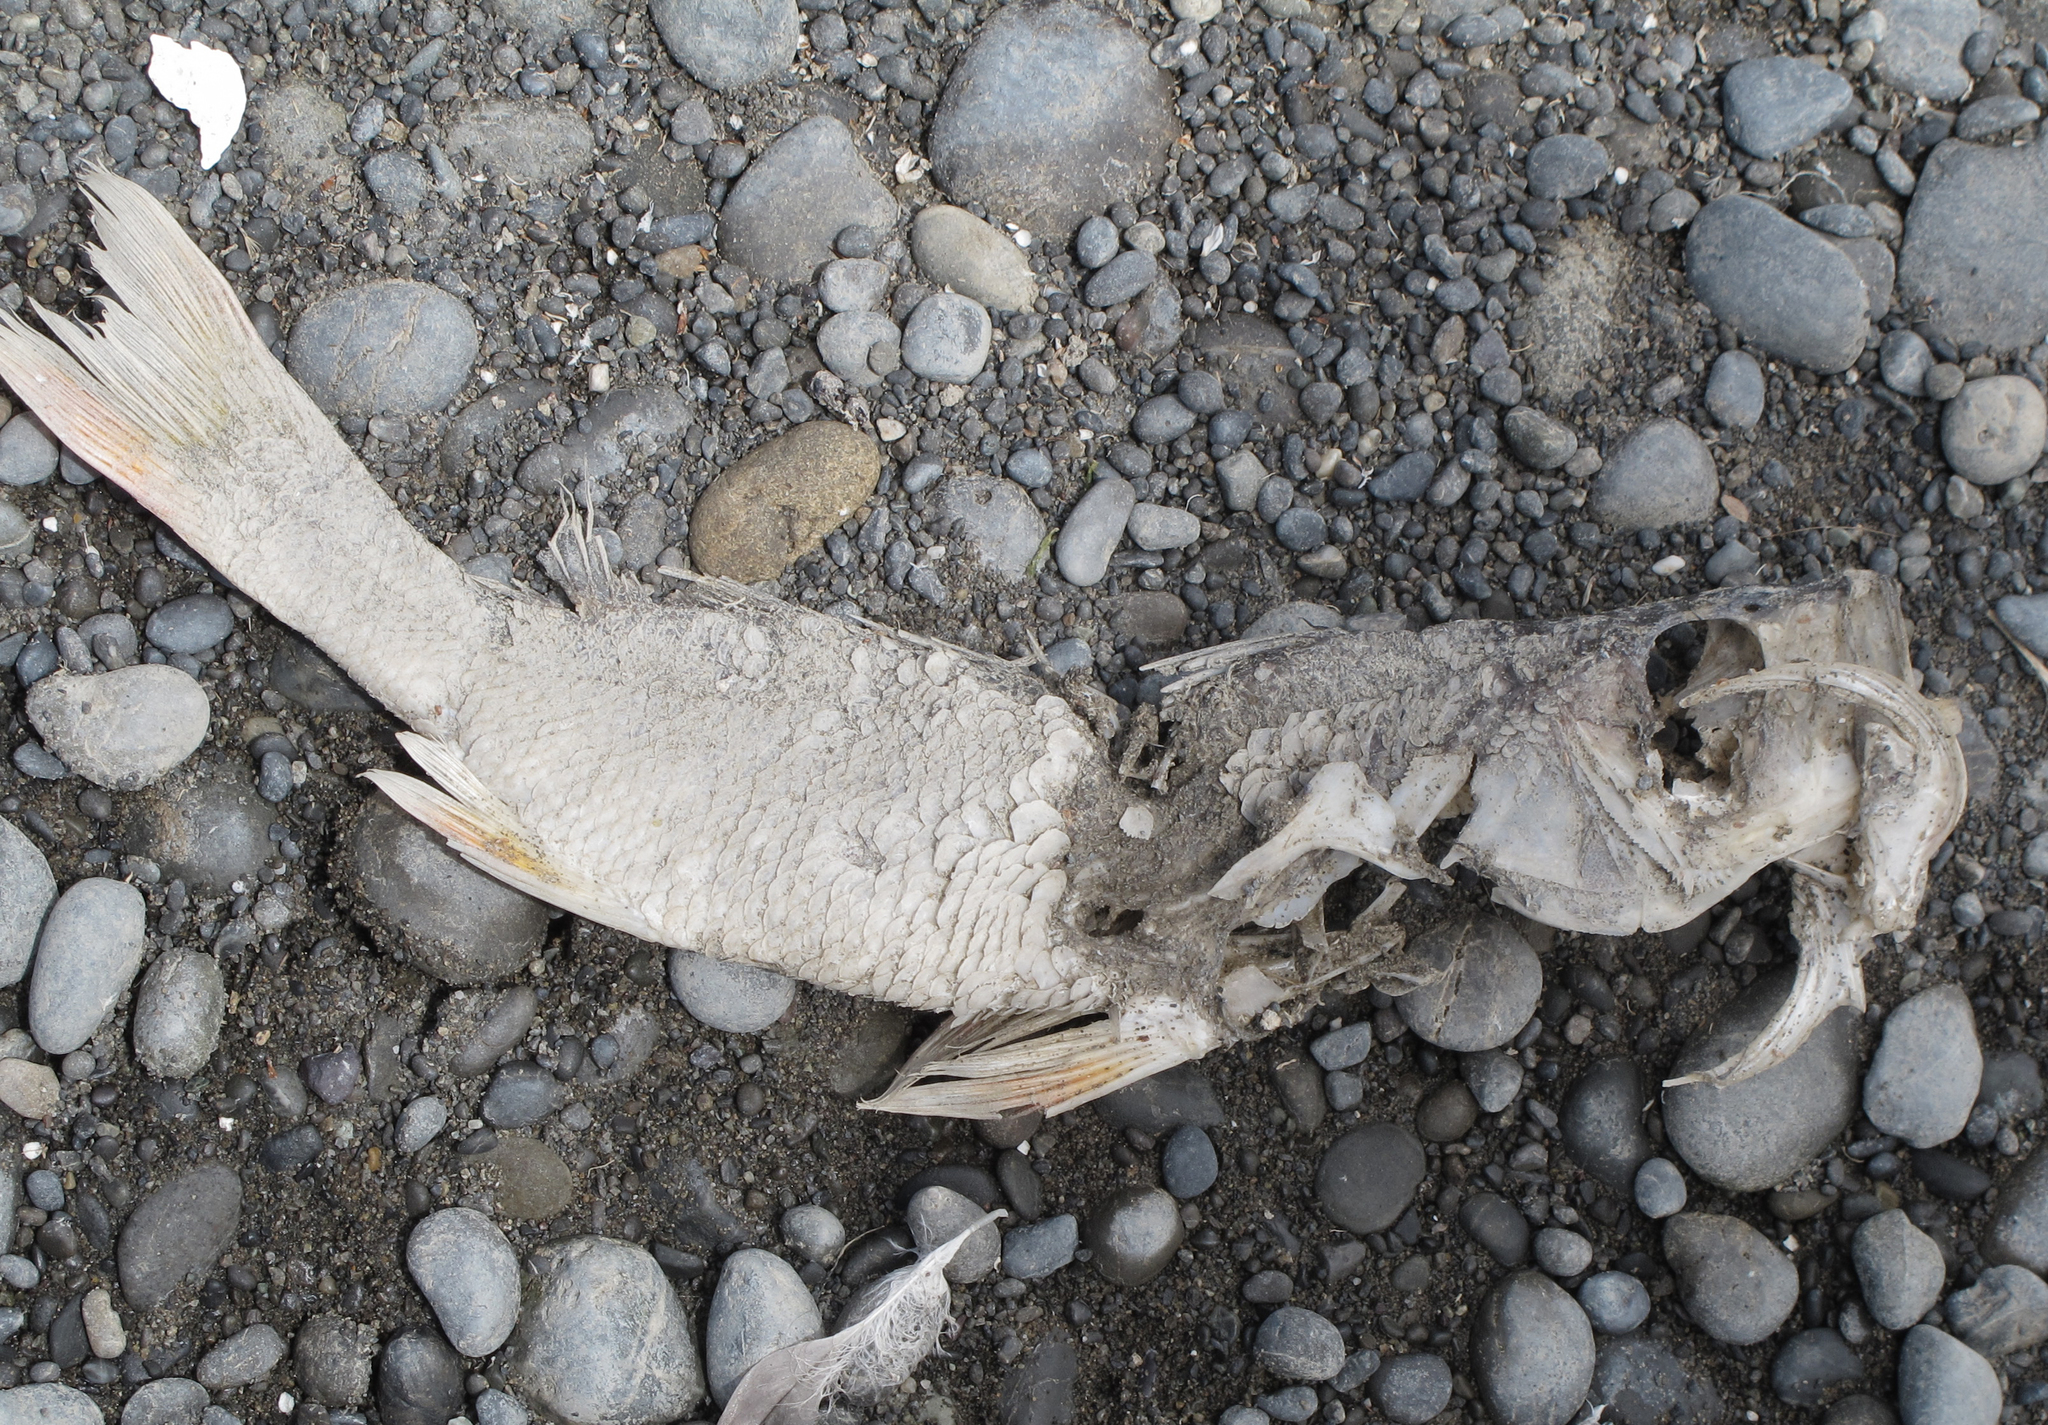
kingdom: Animalia
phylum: Chordata
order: Perciformes
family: Percidae
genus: Perca
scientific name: Perca fluviatilis
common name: Perch
